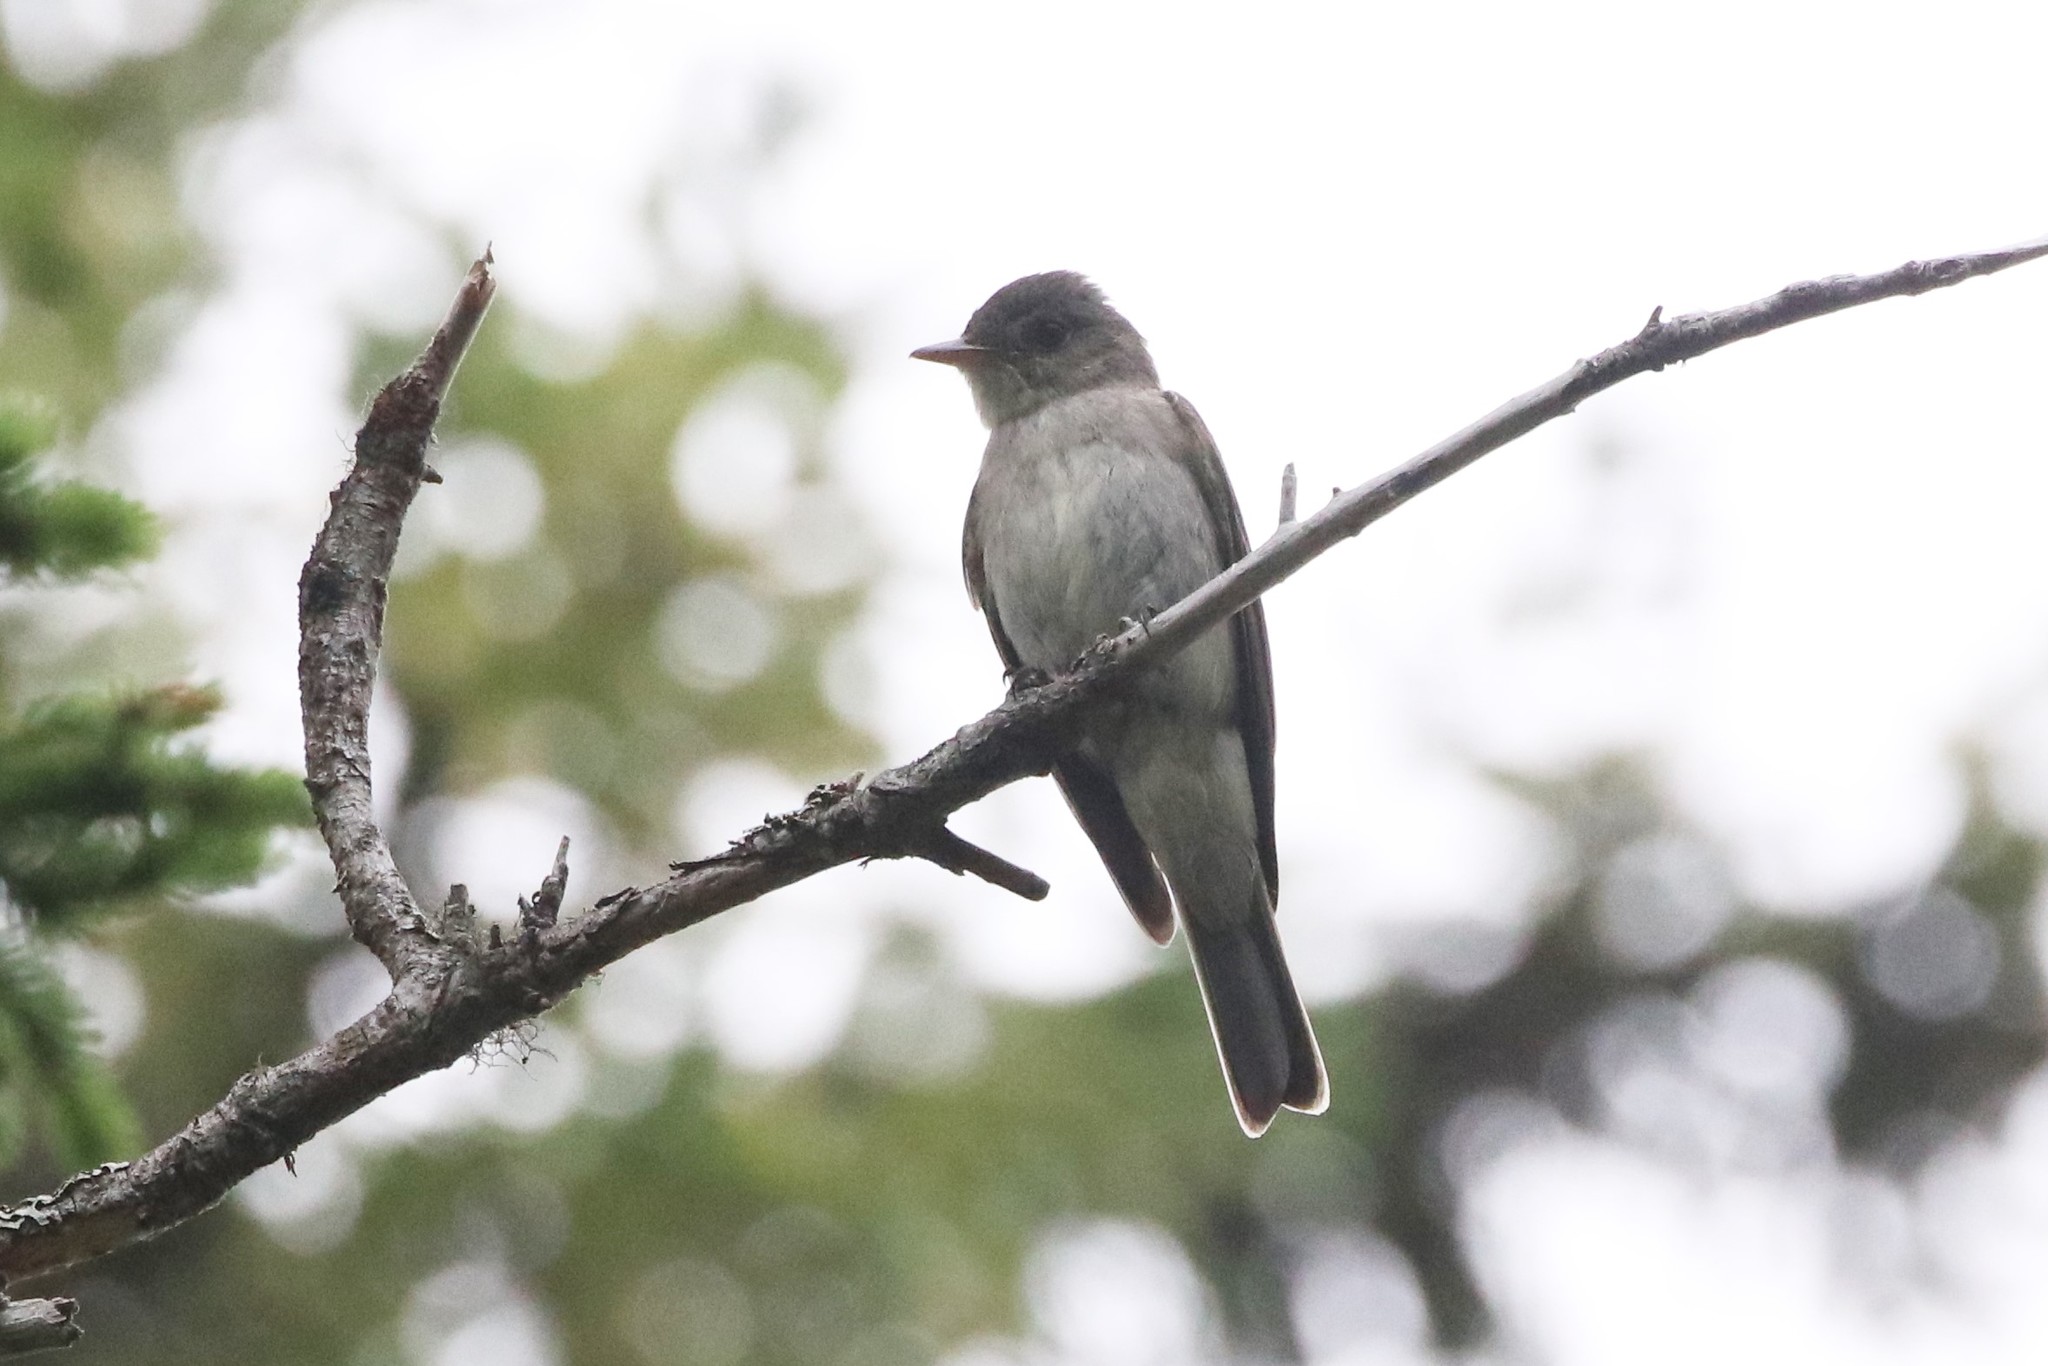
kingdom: Animalia
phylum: Chordata
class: Aves
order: Passeriformes
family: Tyrannidae
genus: Contopus
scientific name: Contopus virens
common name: Eastern wood-pewee
